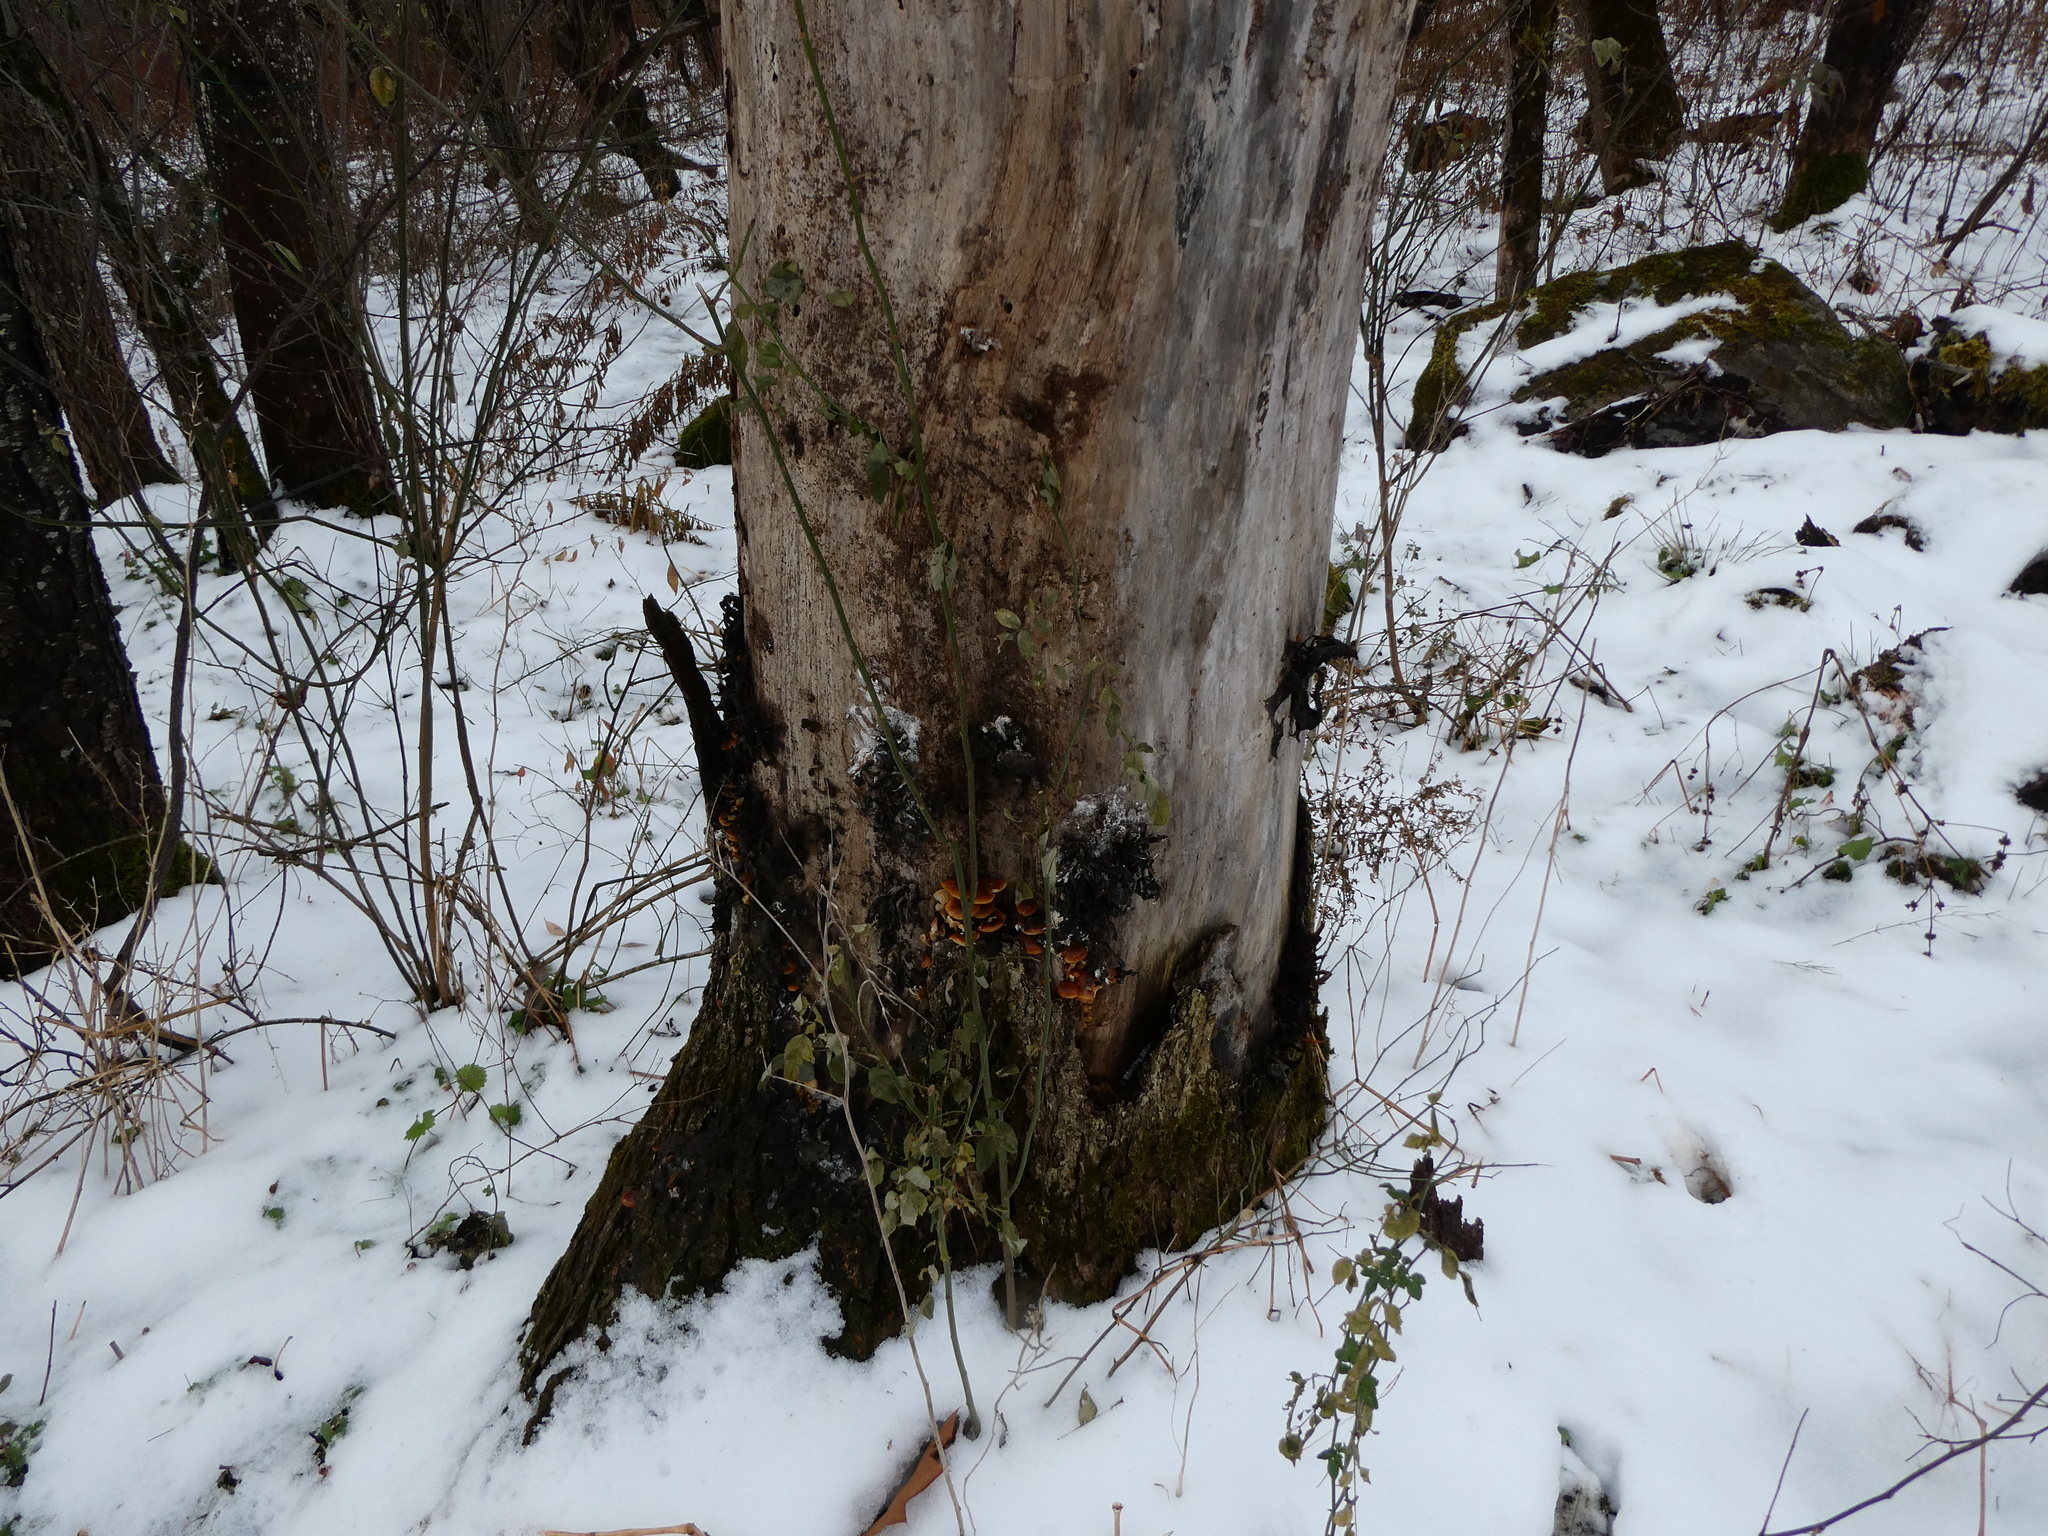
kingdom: Fungi
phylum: Basidiomycota
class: Agaricomycetes
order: Agaricales
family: Physalacriaceae
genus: Flammulina
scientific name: Flammulina velutipes
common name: Velvet shank
